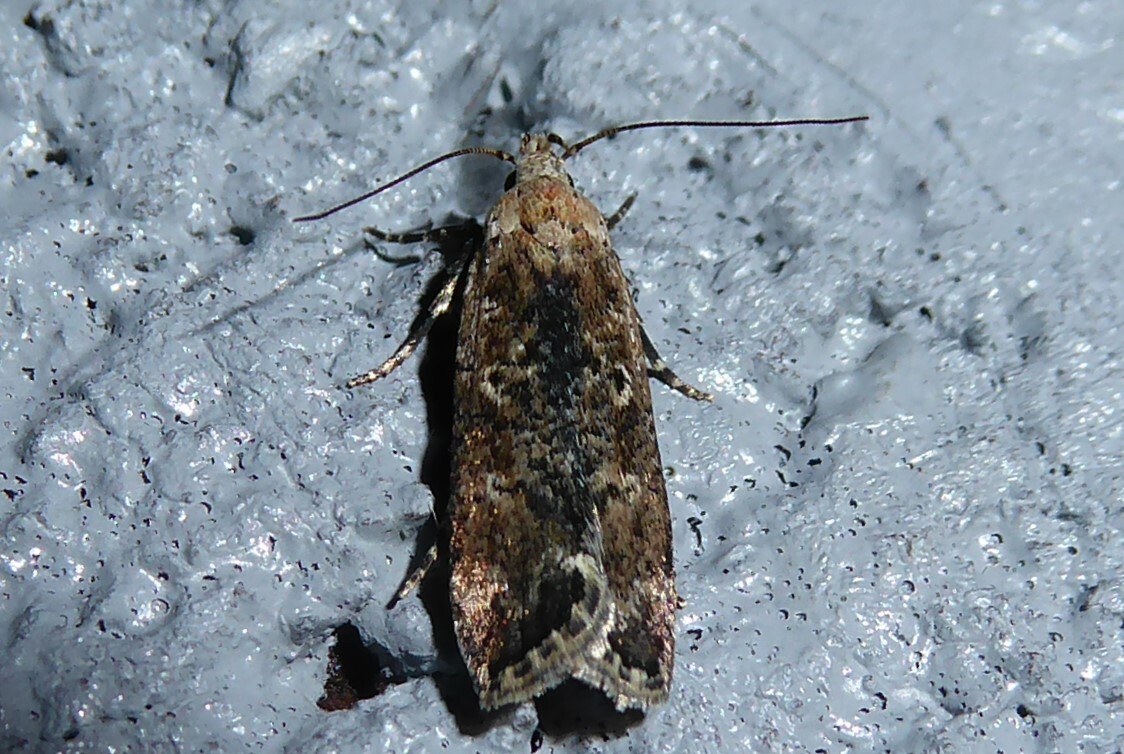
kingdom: Animalia
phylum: Arthropoda
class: Insecta
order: Lepidoptera
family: Gelechiidae
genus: Anisoplaca
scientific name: Anisoplaca achyrota
